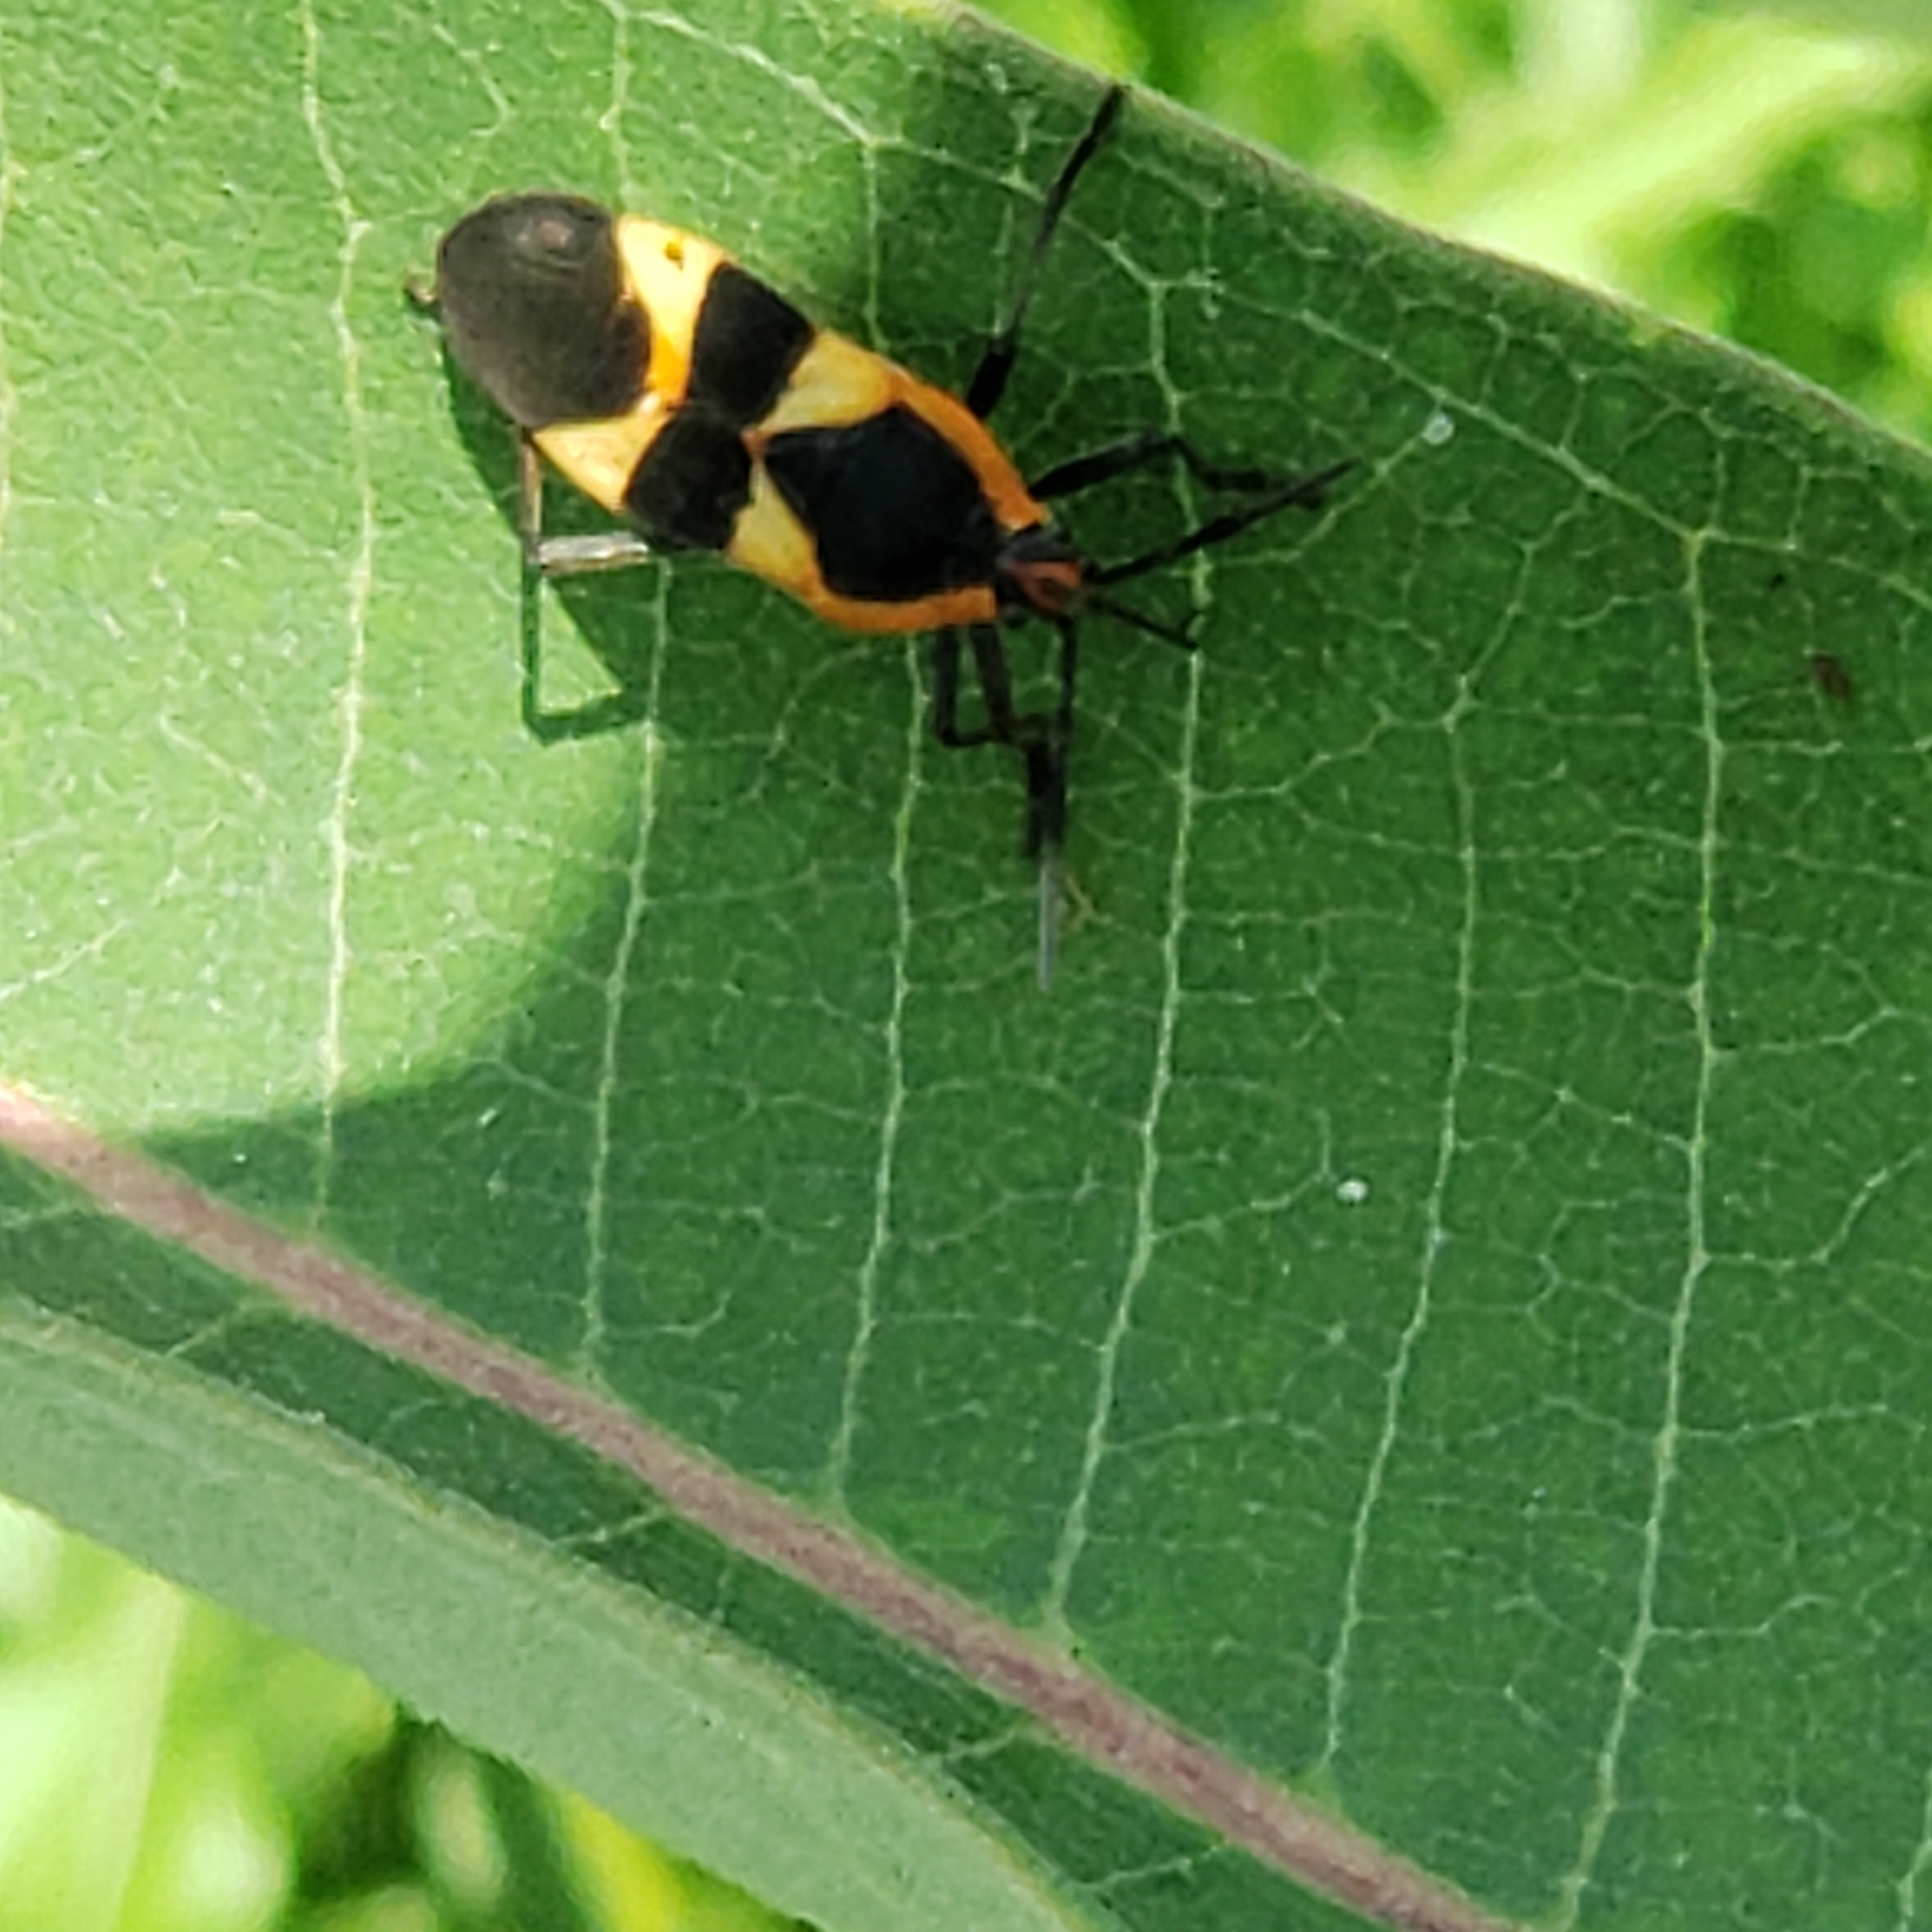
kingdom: Animalia
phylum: Arthropoda
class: Insecta
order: Hemiptera
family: Lygaeidae
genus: Oncopeltus
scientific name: Oncopeltus fasciatus
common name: Large milkweed bug
